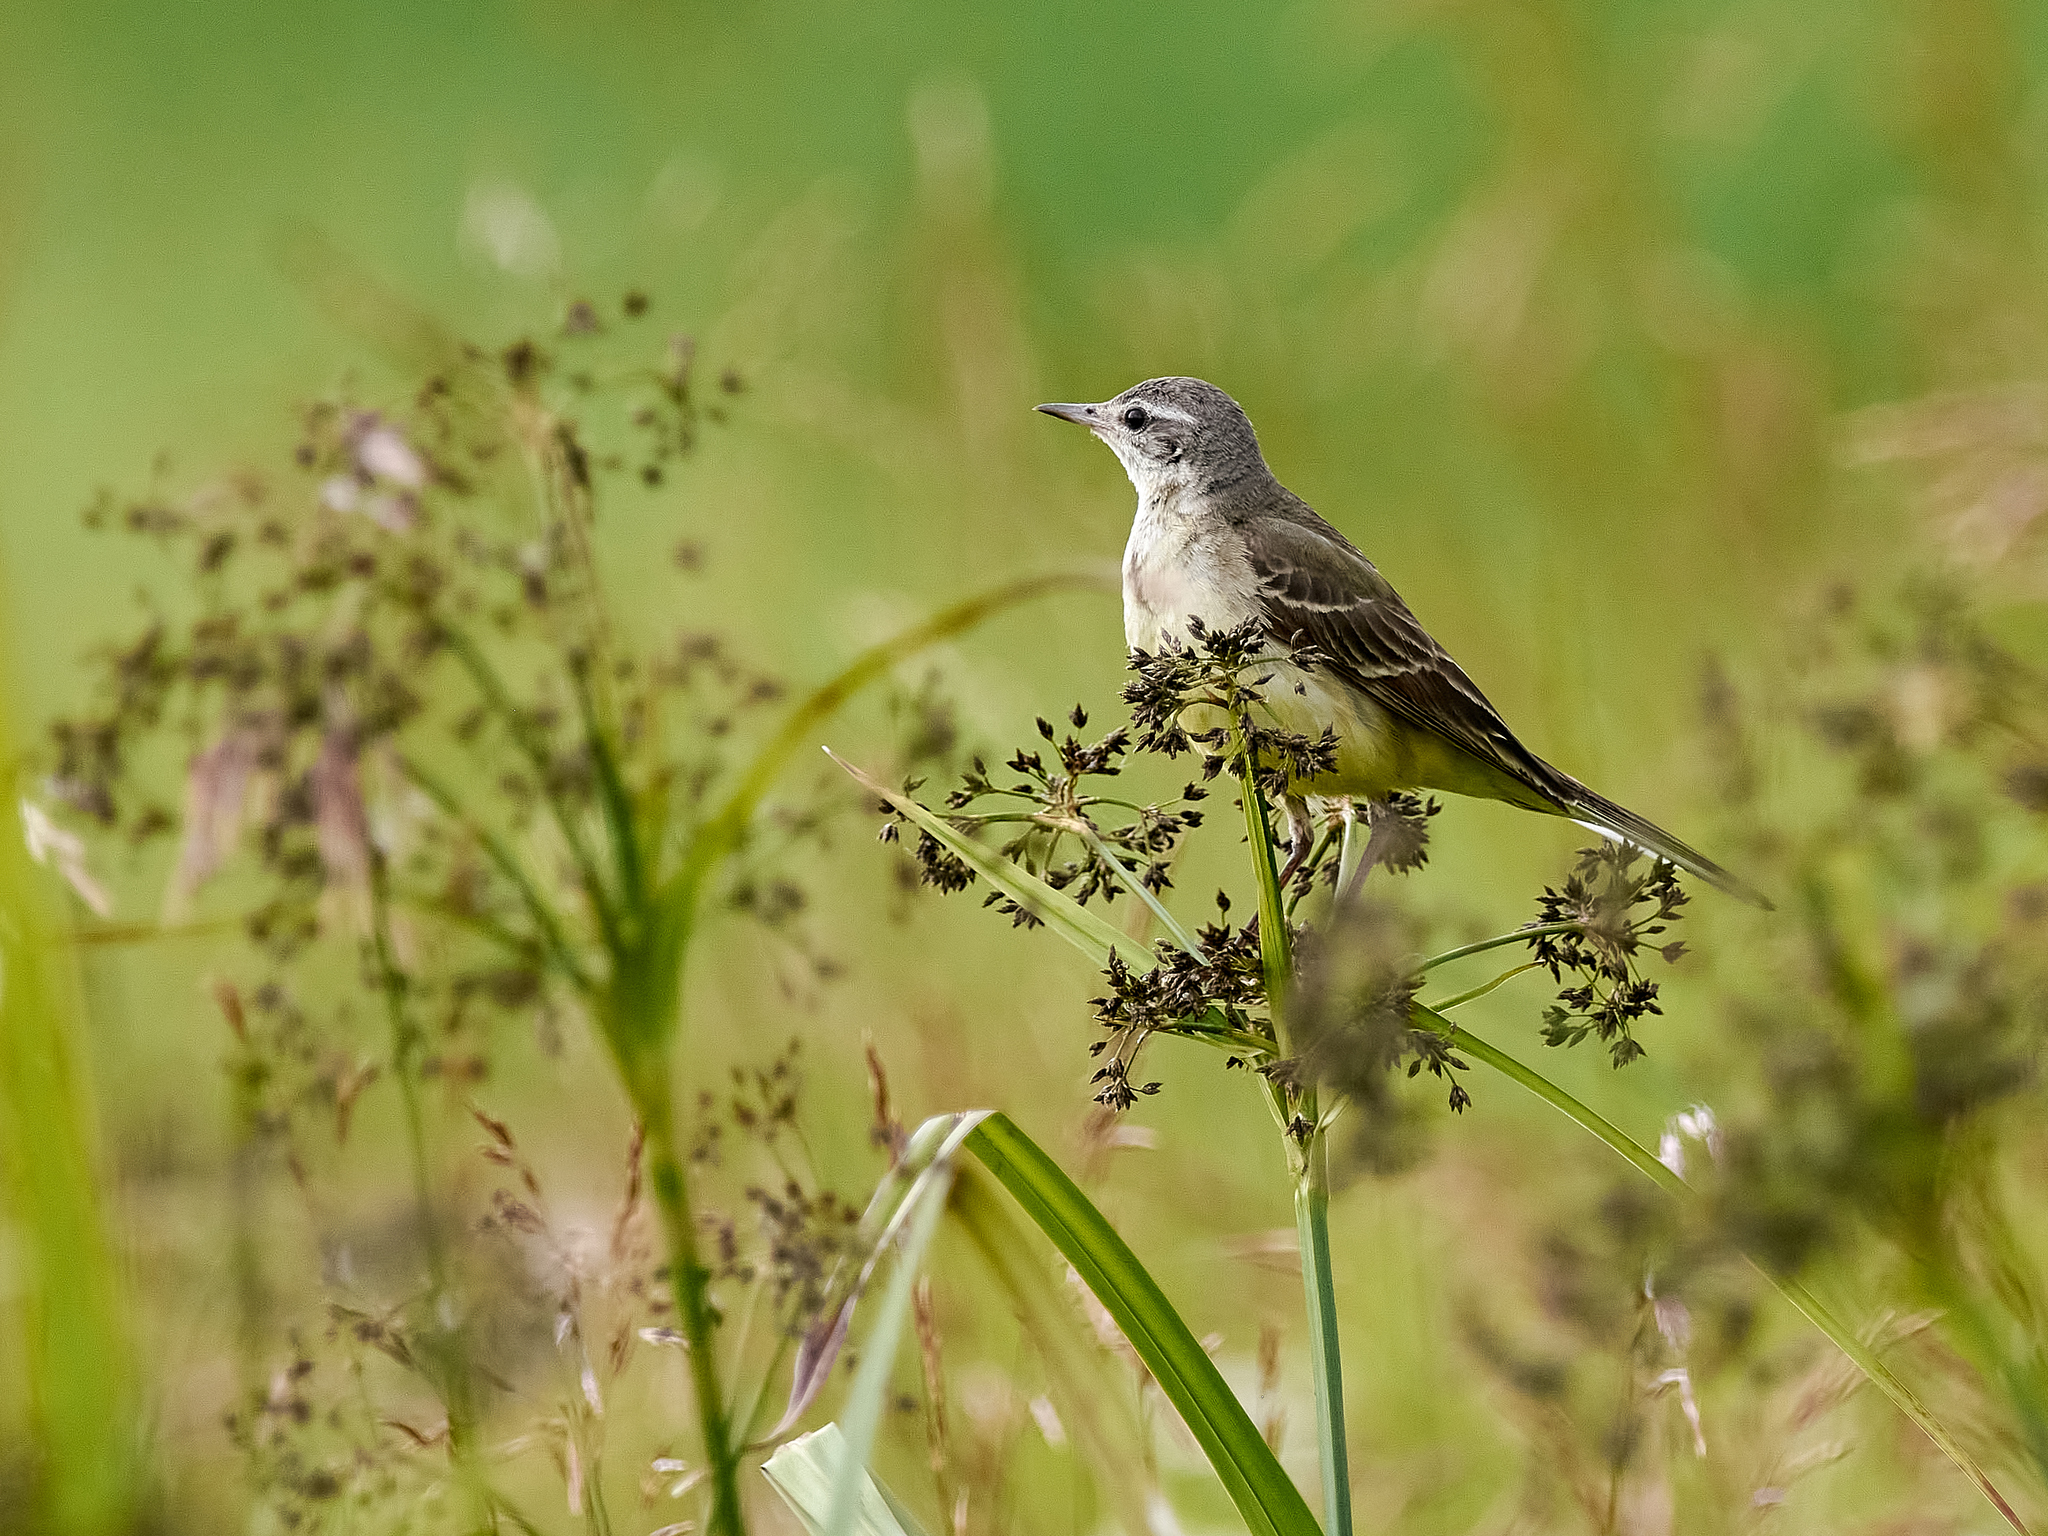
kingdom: Animalia
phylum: Chordata
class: Aves
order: Passeriformes
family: Motacillidae
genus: Motacilla
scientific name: Motacilla flava
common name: Western yellow wagtail
